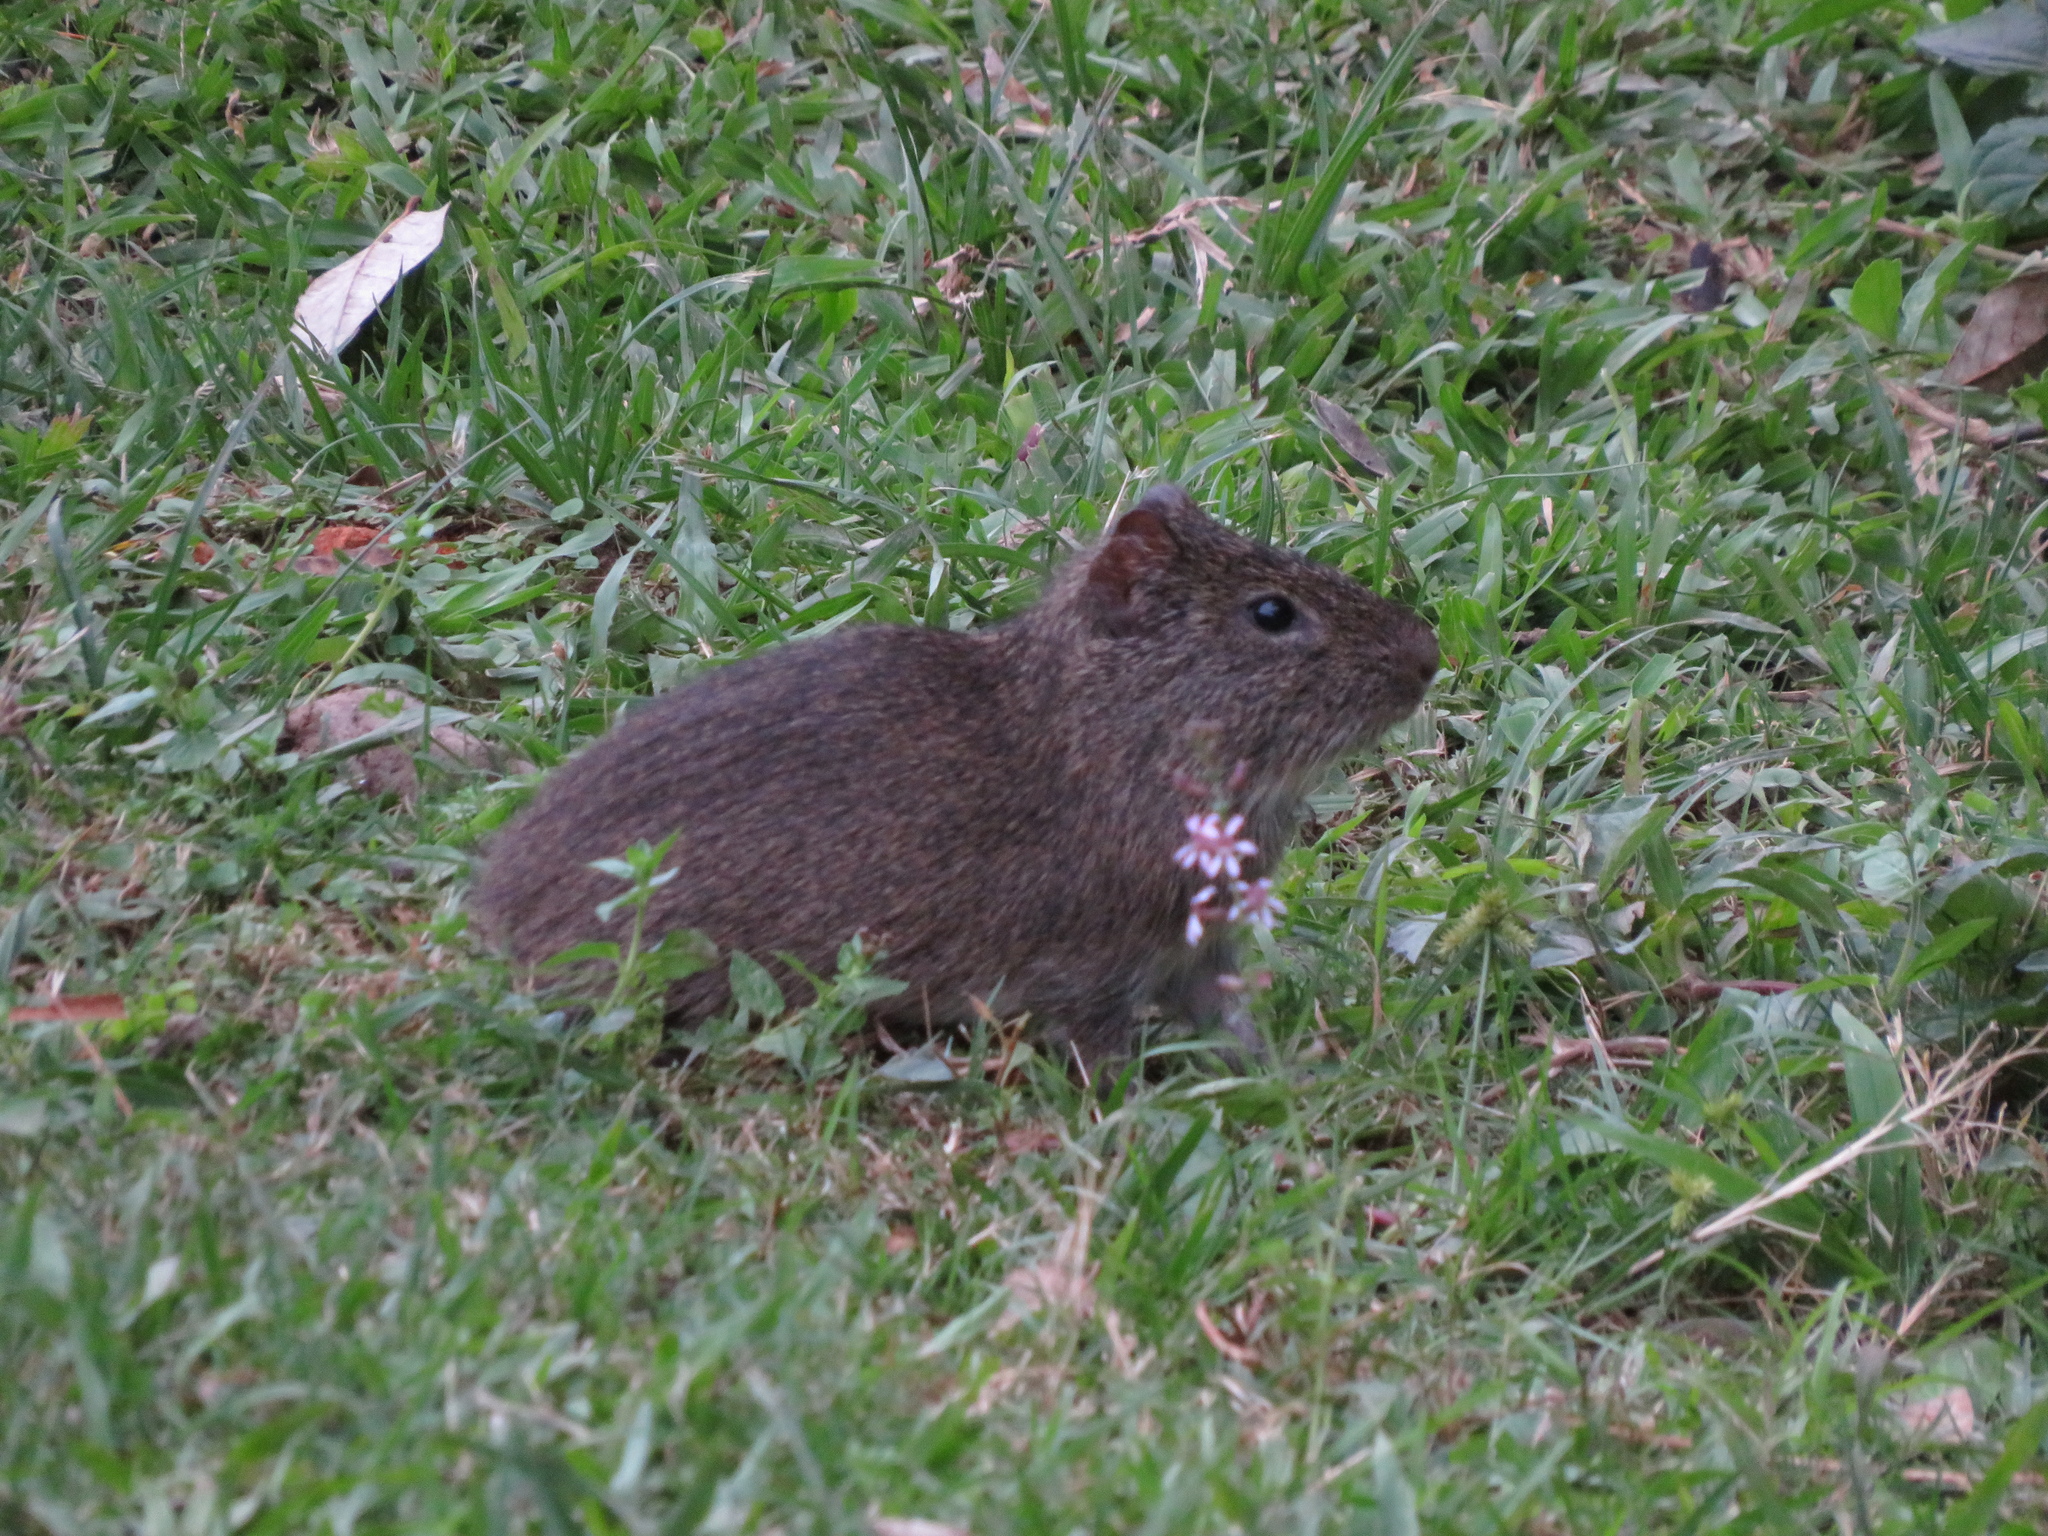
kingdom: Animalia
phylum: Chordata
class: Mammalia
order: Rodentia
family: Caviidae
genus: Cavia
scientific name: Cavia aperea
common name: Brazilian guinea pig
